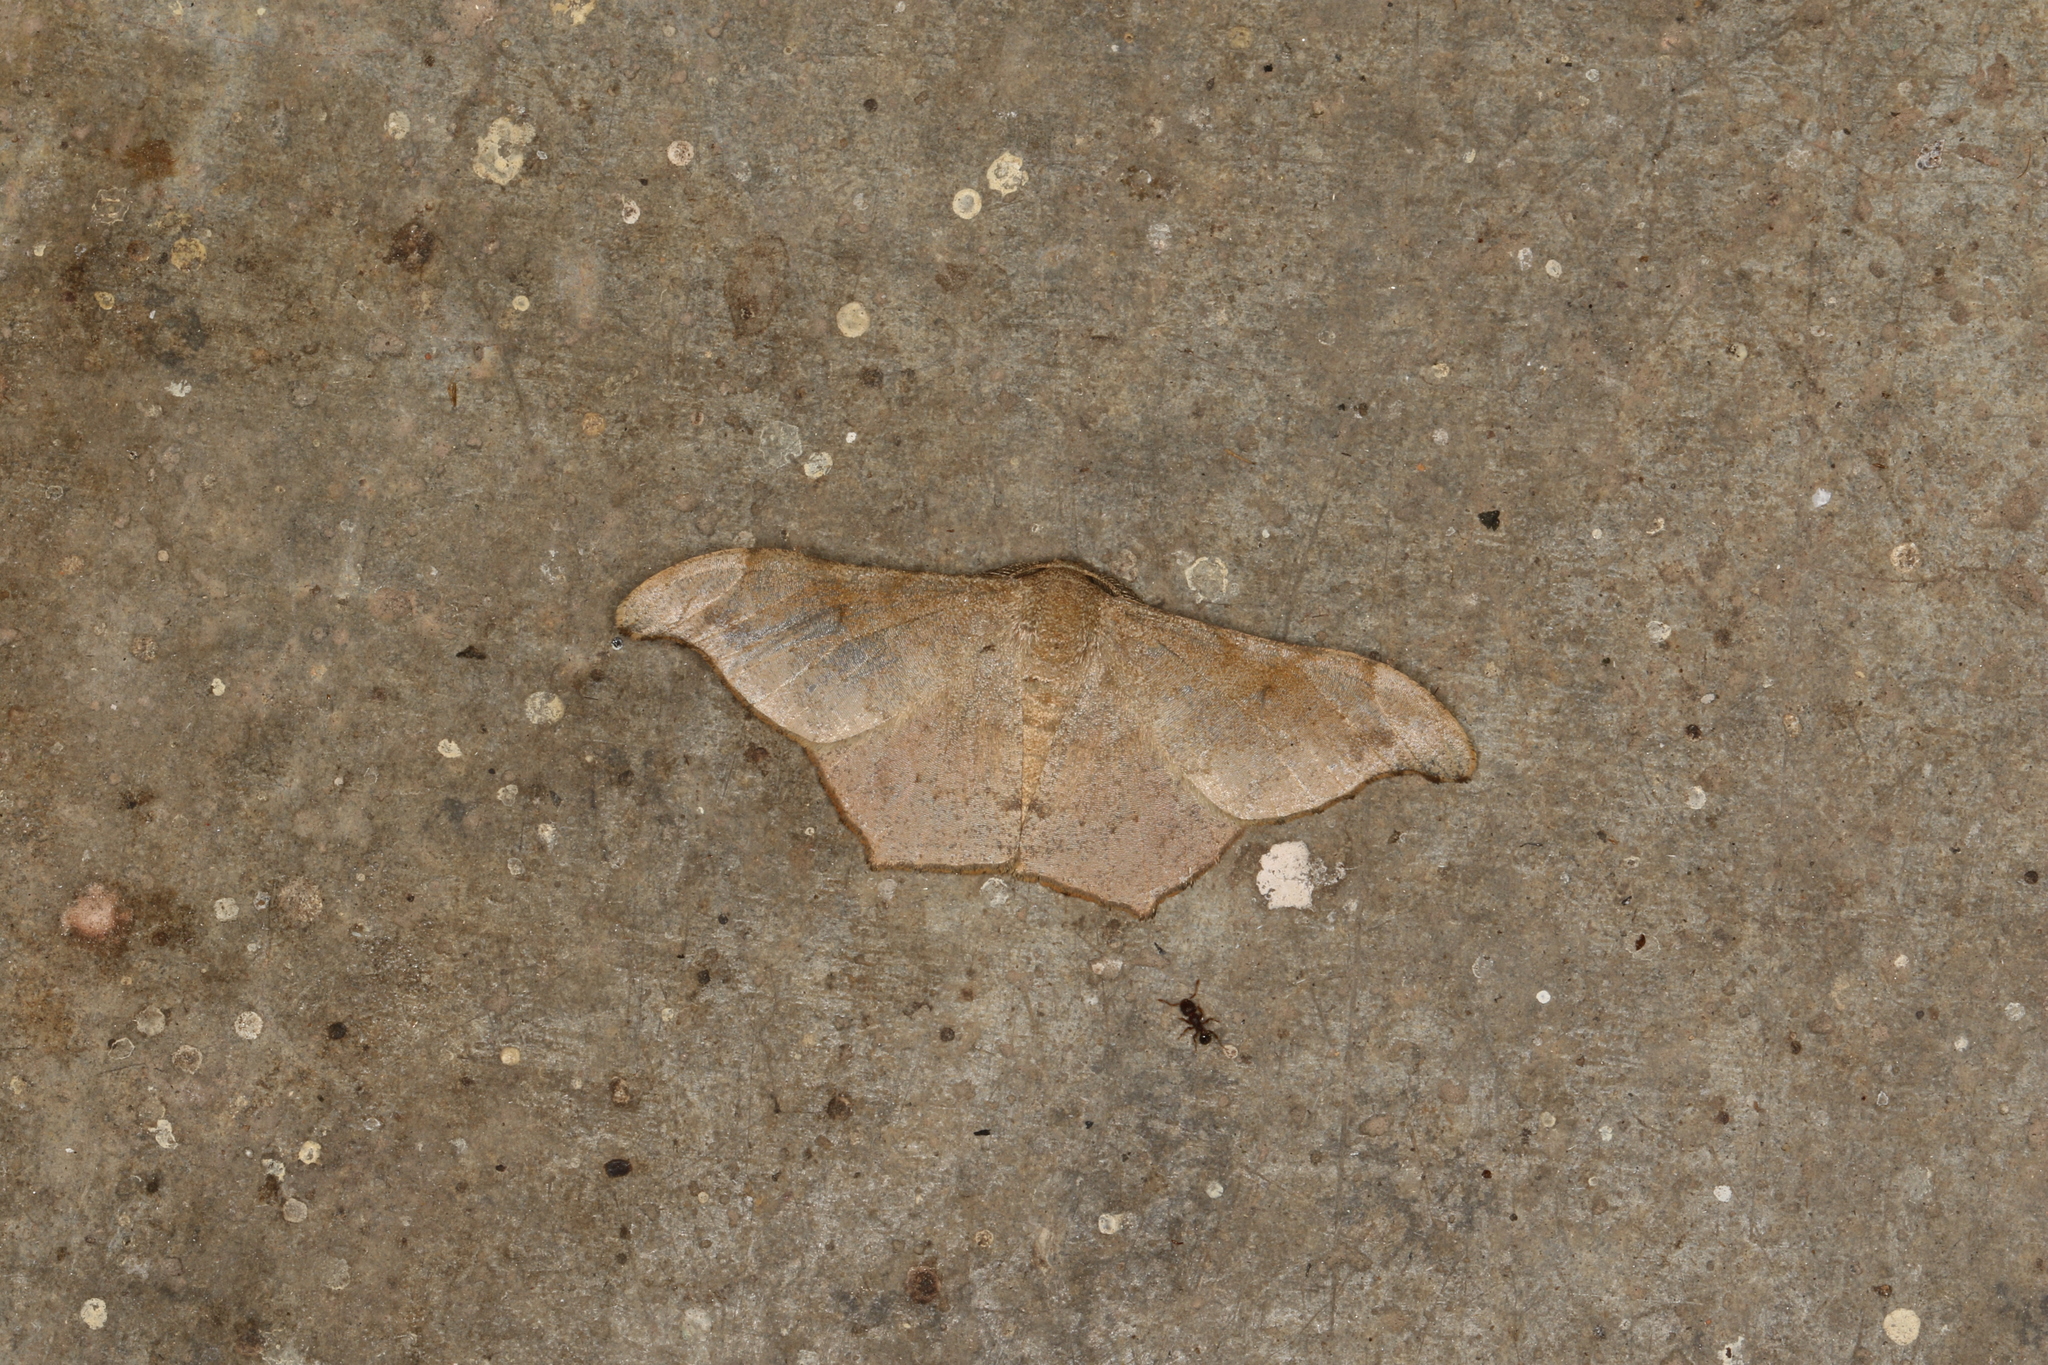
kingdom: Animalia
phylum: Arthropoda
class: Insecta
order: Lepidoptera
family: Geometridae
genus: Hyposidra
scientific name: Hyposidra talaca
